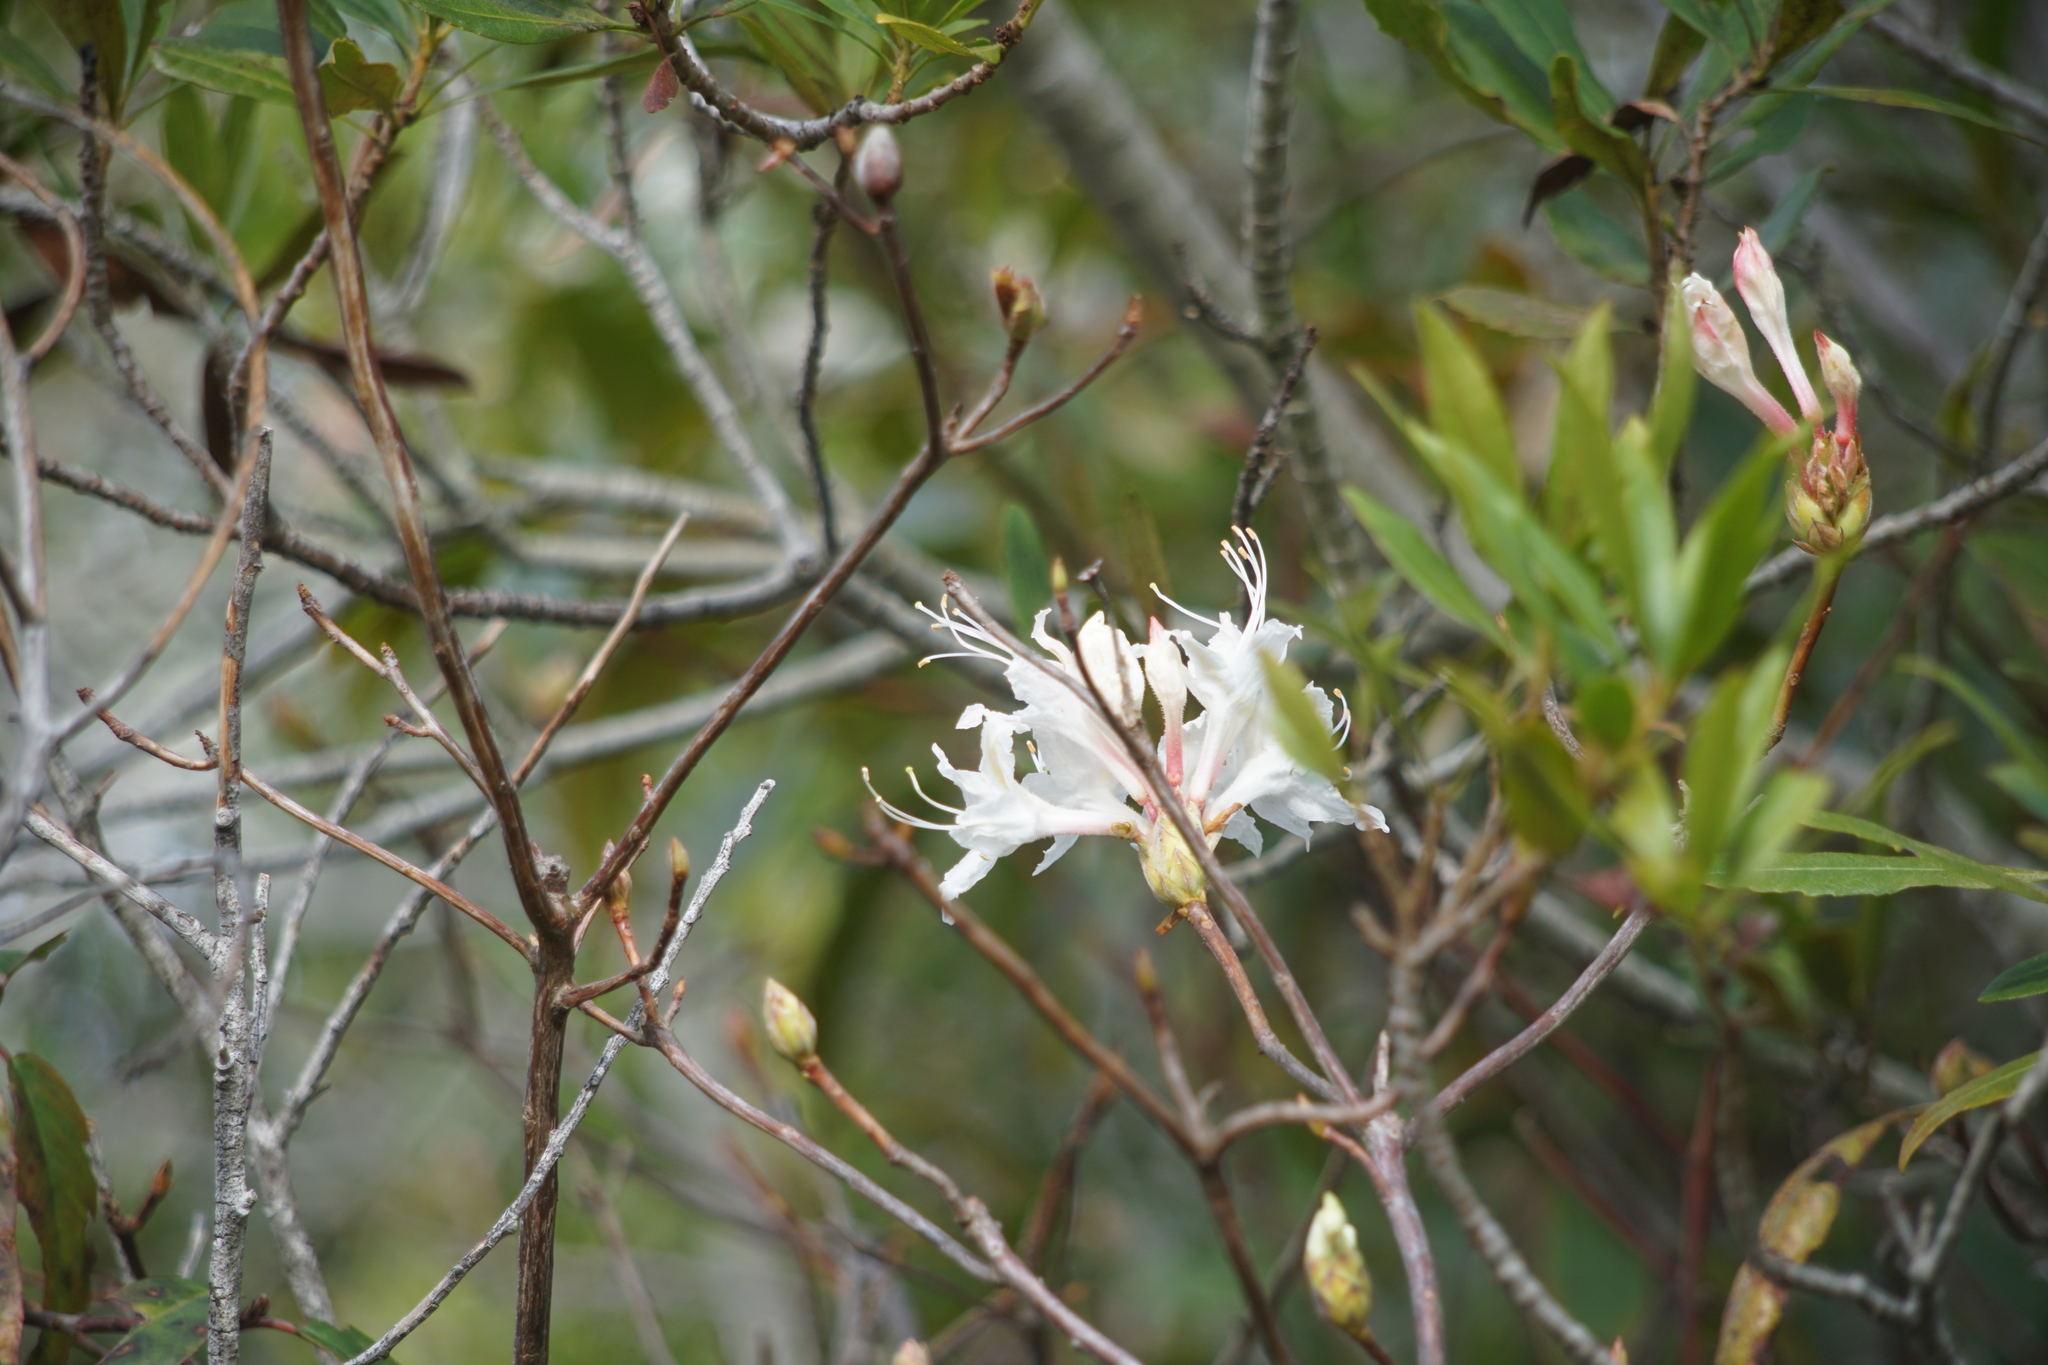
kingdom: Plantae
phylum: Tracheophyta
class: Magnoliopsida
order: Ericales
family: Ericaceae
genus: Rhododendron
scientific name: Rhododendron occidentale
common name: Western azalea
